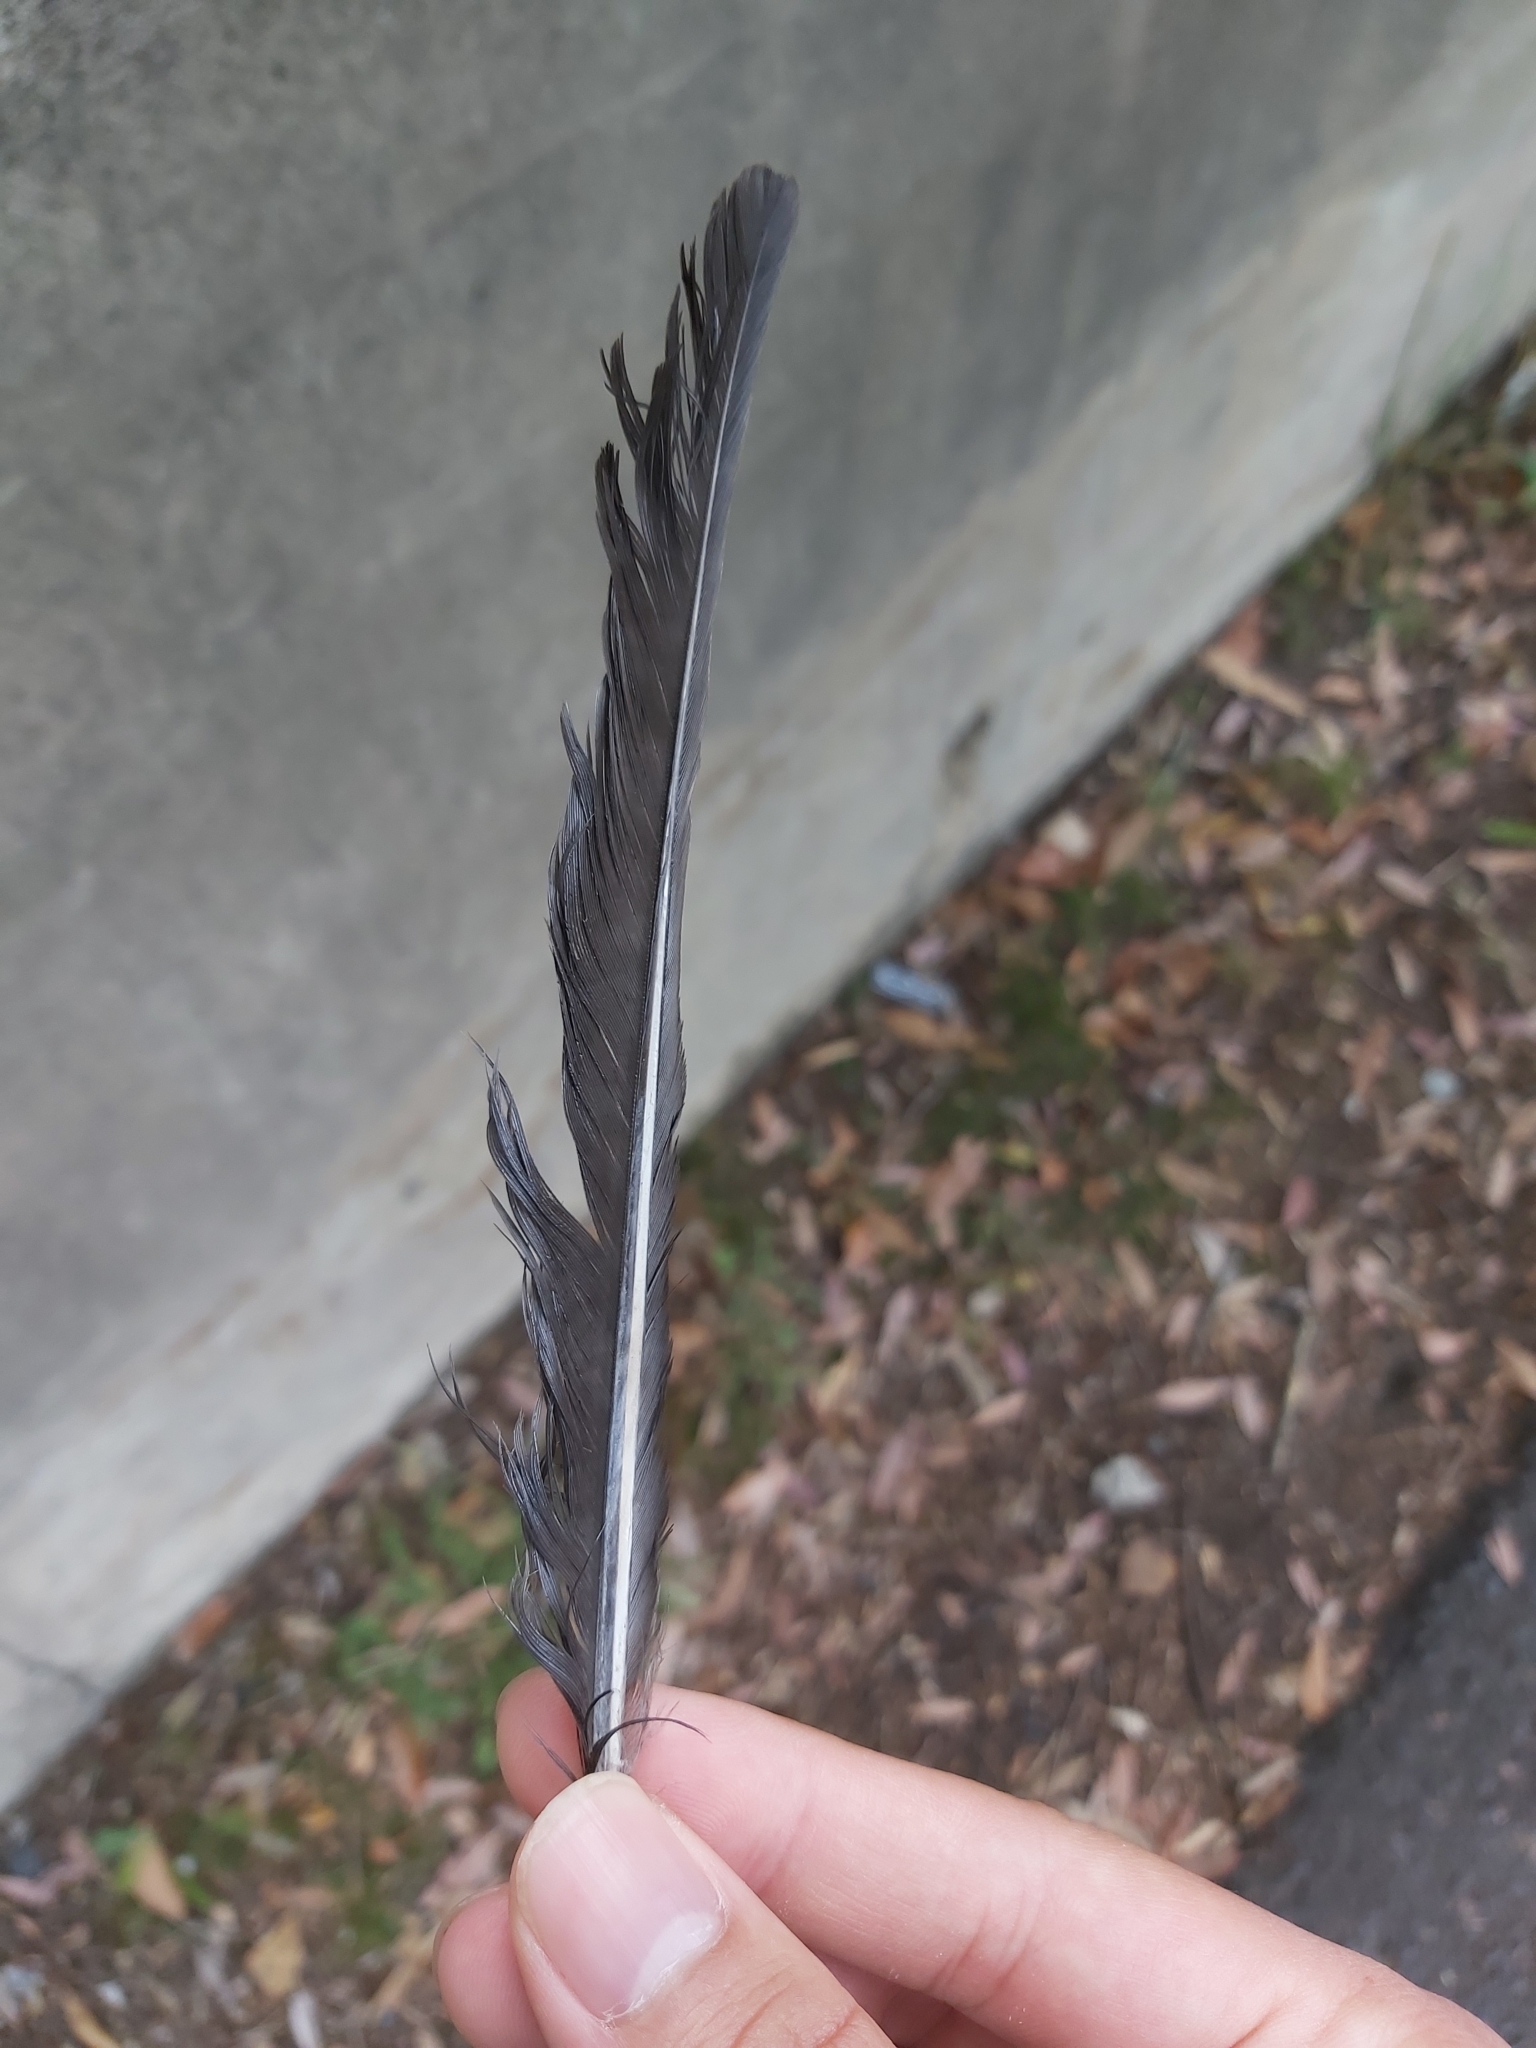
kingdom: Animalia
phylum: Chordata
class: Aves
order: Passeriformes
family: Cracticidae
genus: Gymnorhina
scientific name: Gymnorhina tibicen
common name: Australian magpie
